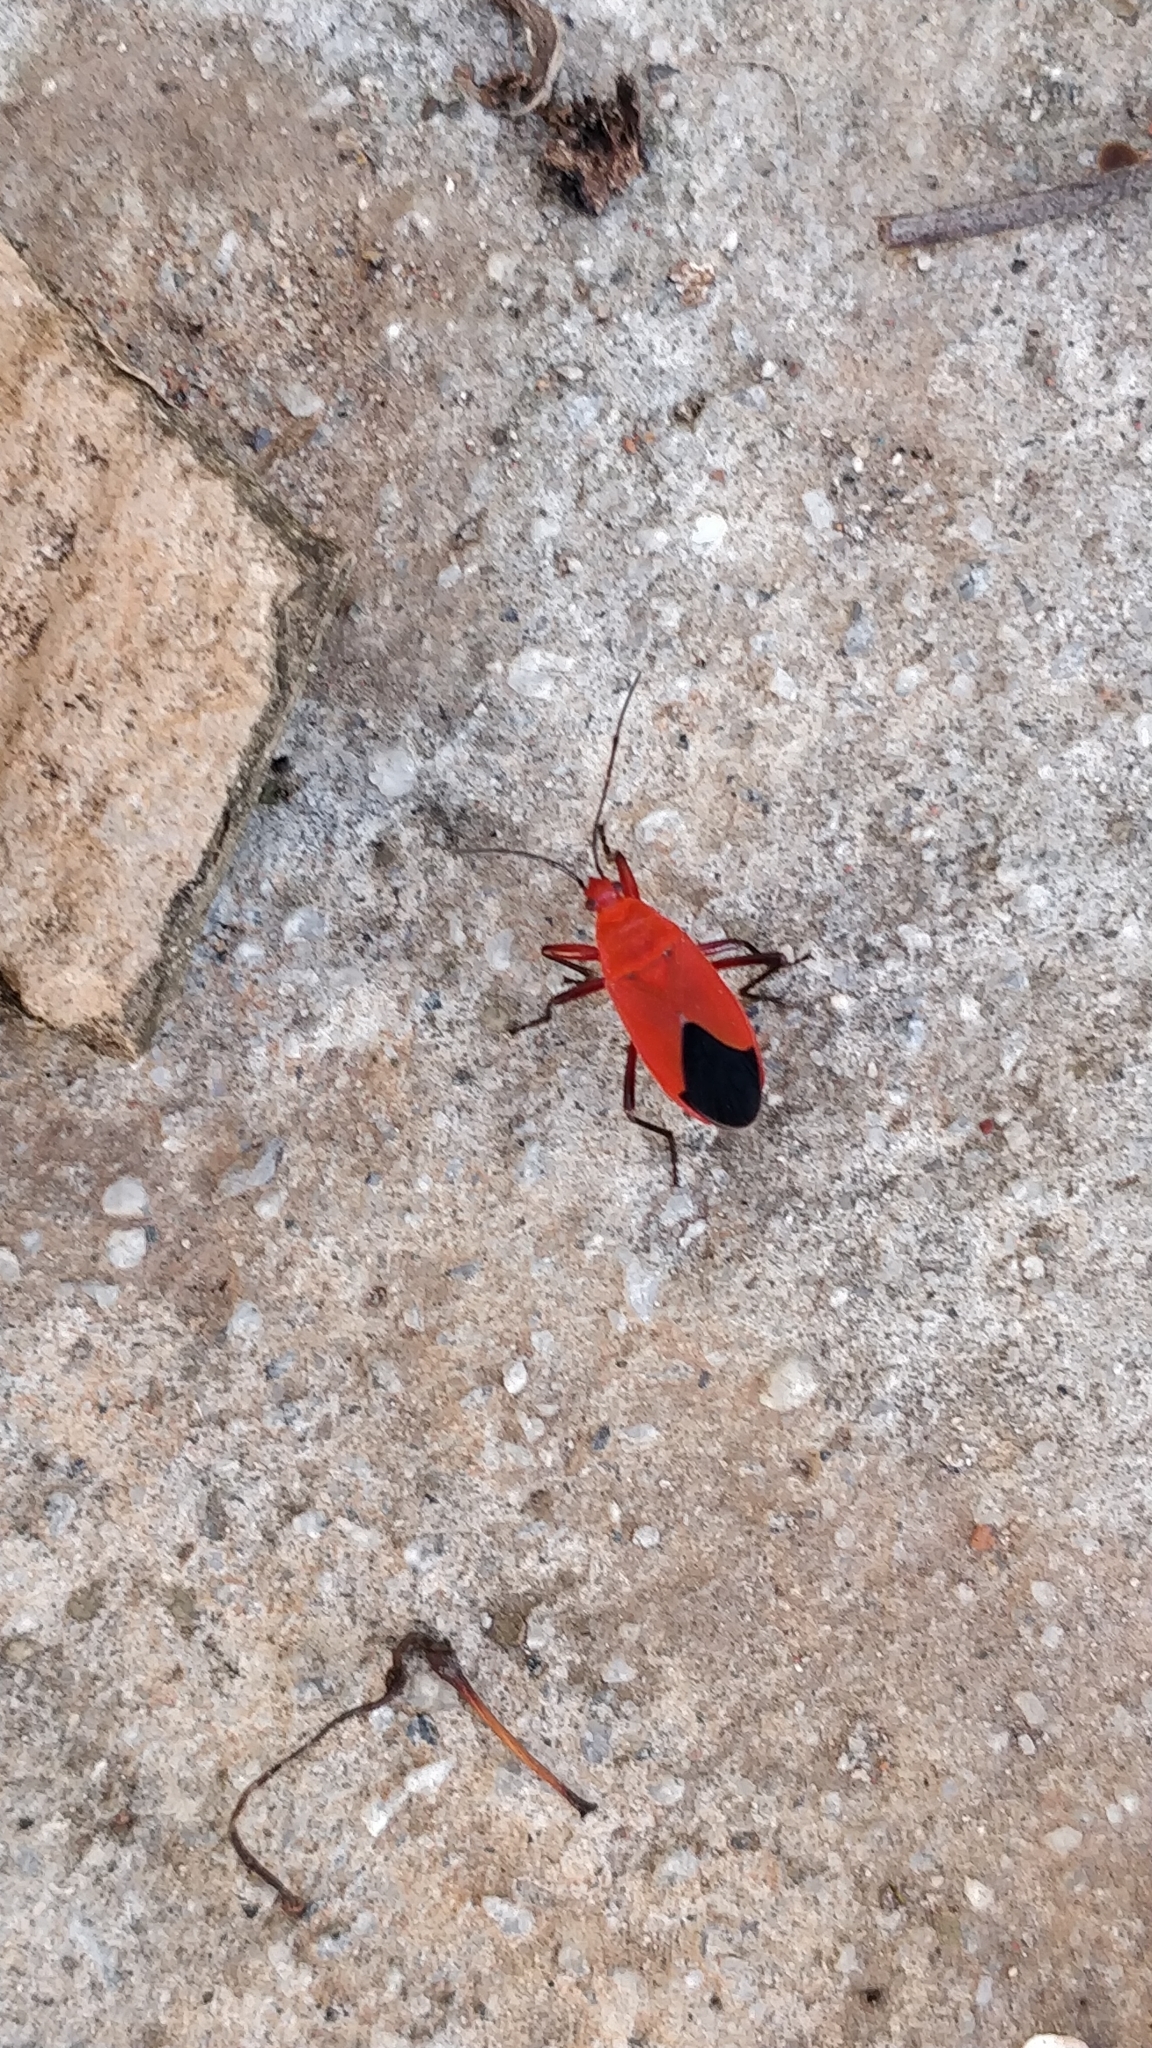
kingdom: Animalia
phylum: Arthropoda
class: Insecta
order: Hemiptera
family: Pyrrhocoridae
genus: Antilochus
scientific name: Antilochus coquebertii
